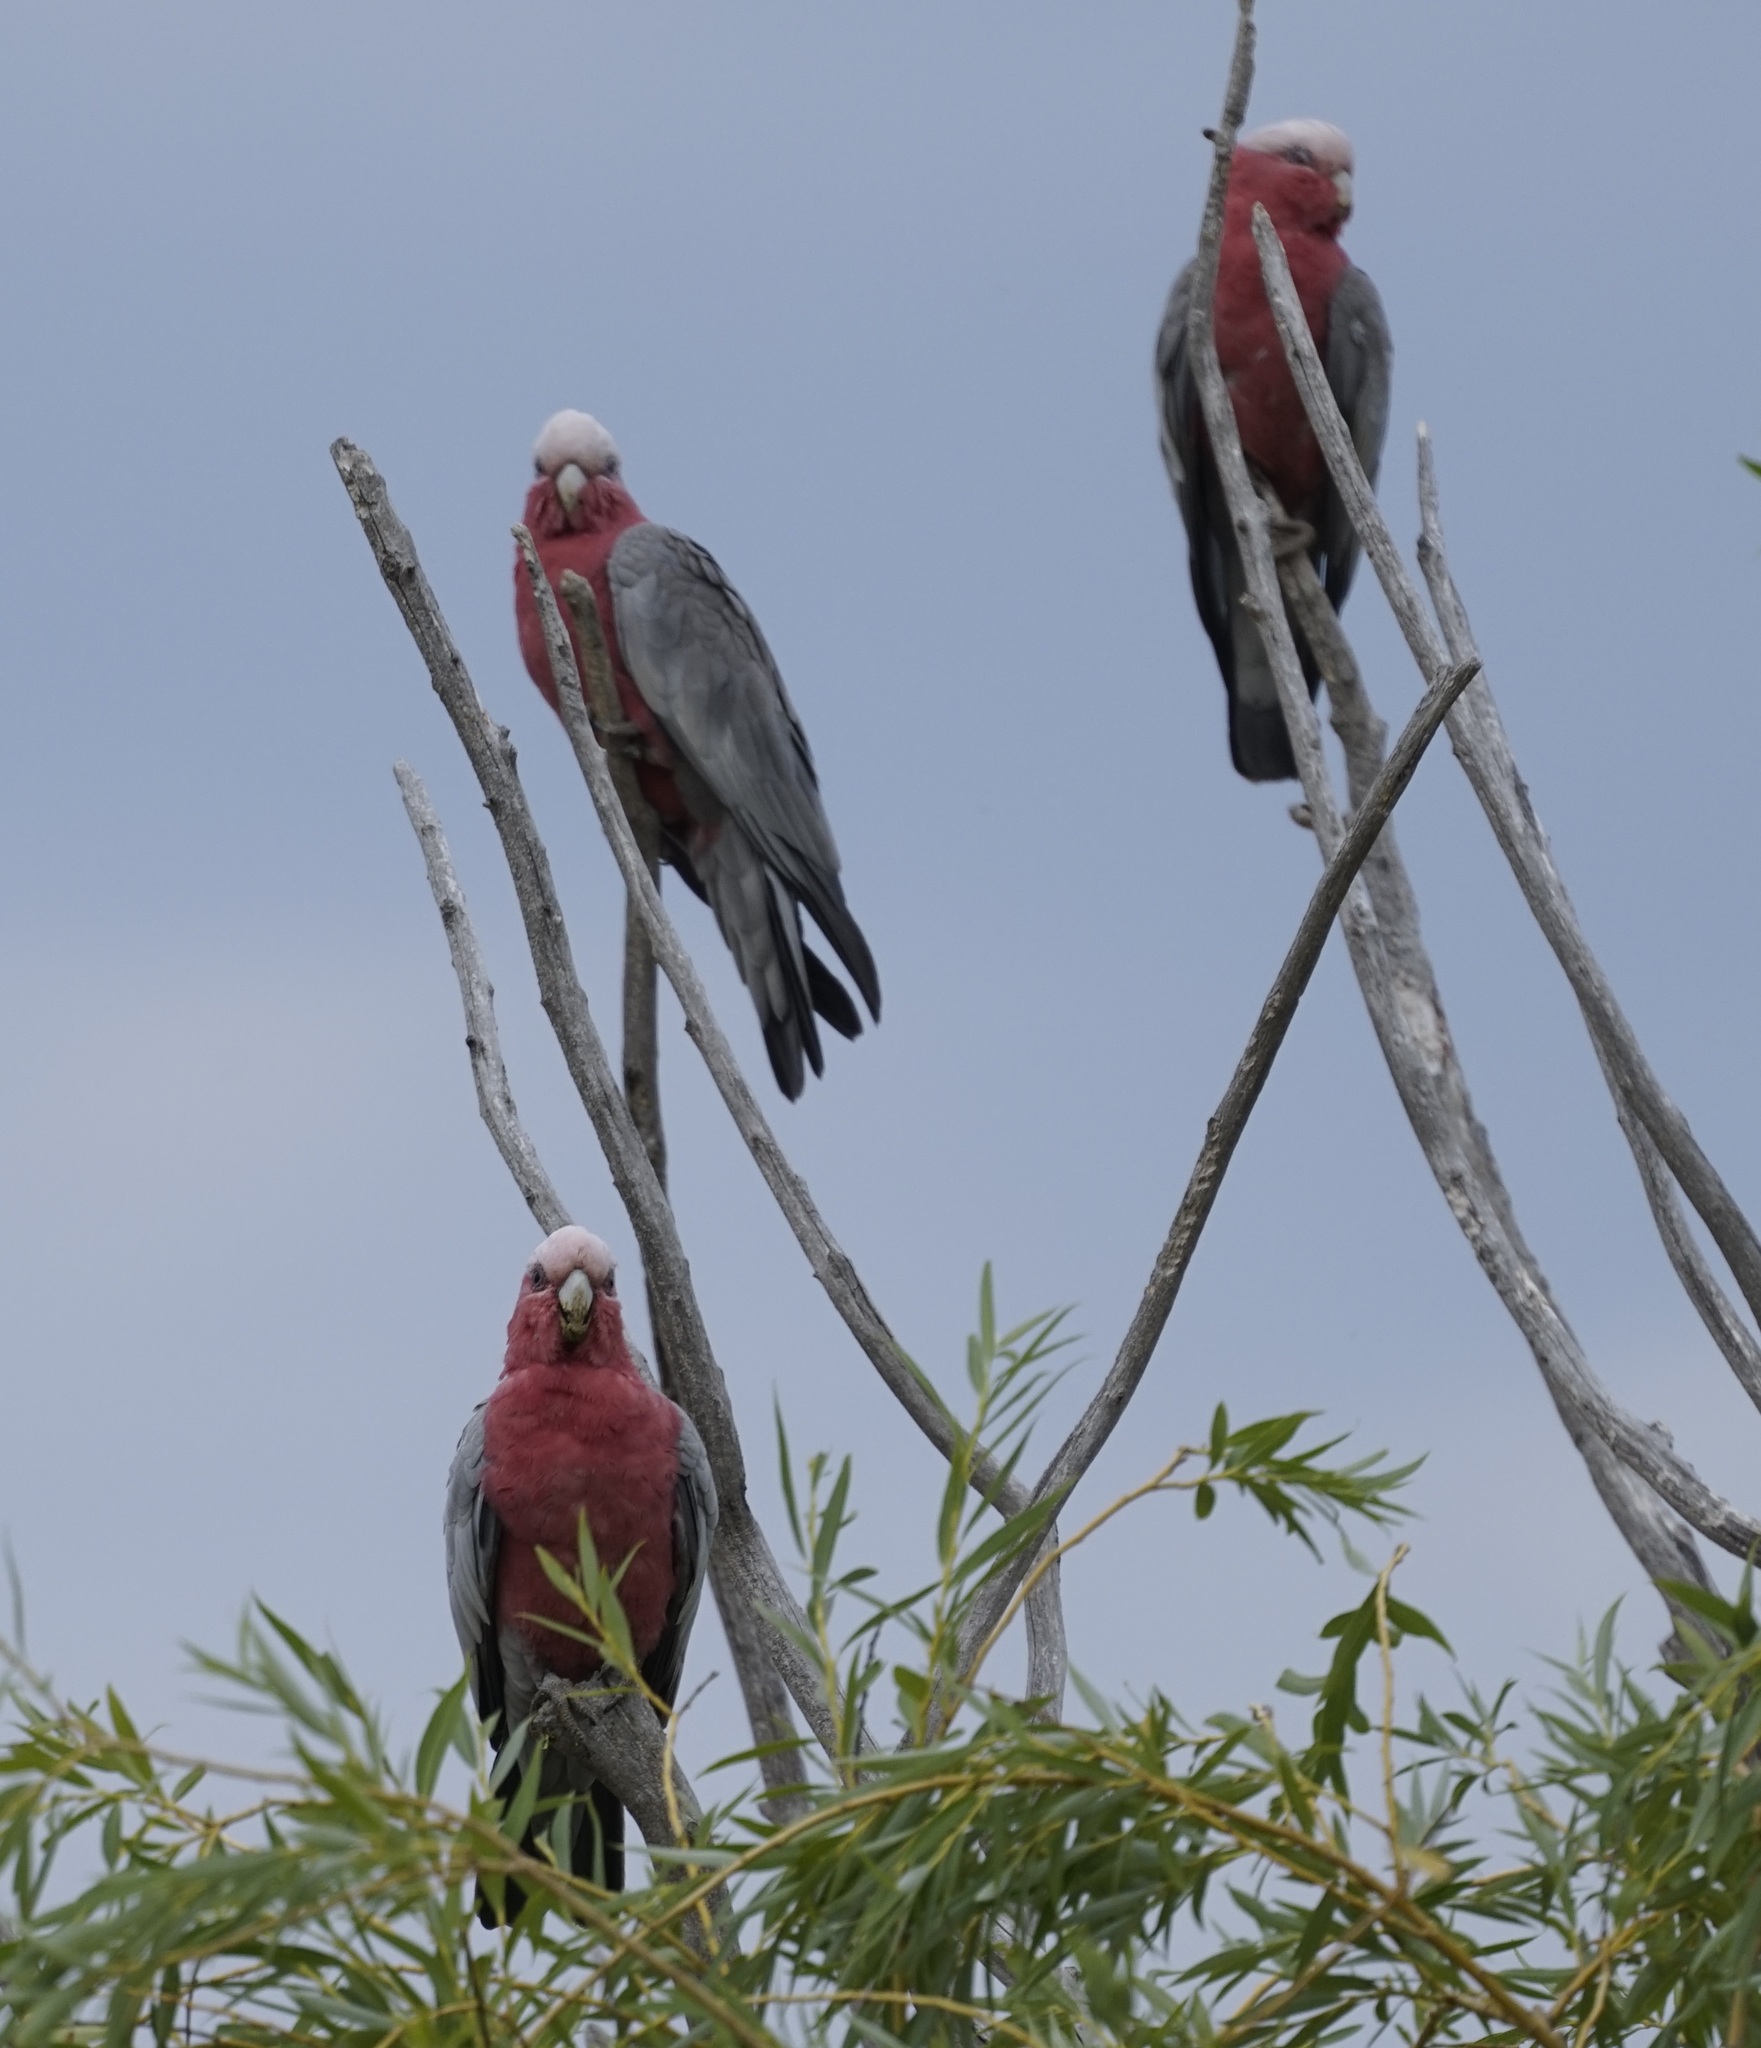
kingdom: Animalia
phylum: Chordata
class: Aves
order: Psittaciformes
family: Psittacidae
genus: Eolophus
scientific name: Eolophus roseicapilla
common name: Galah
